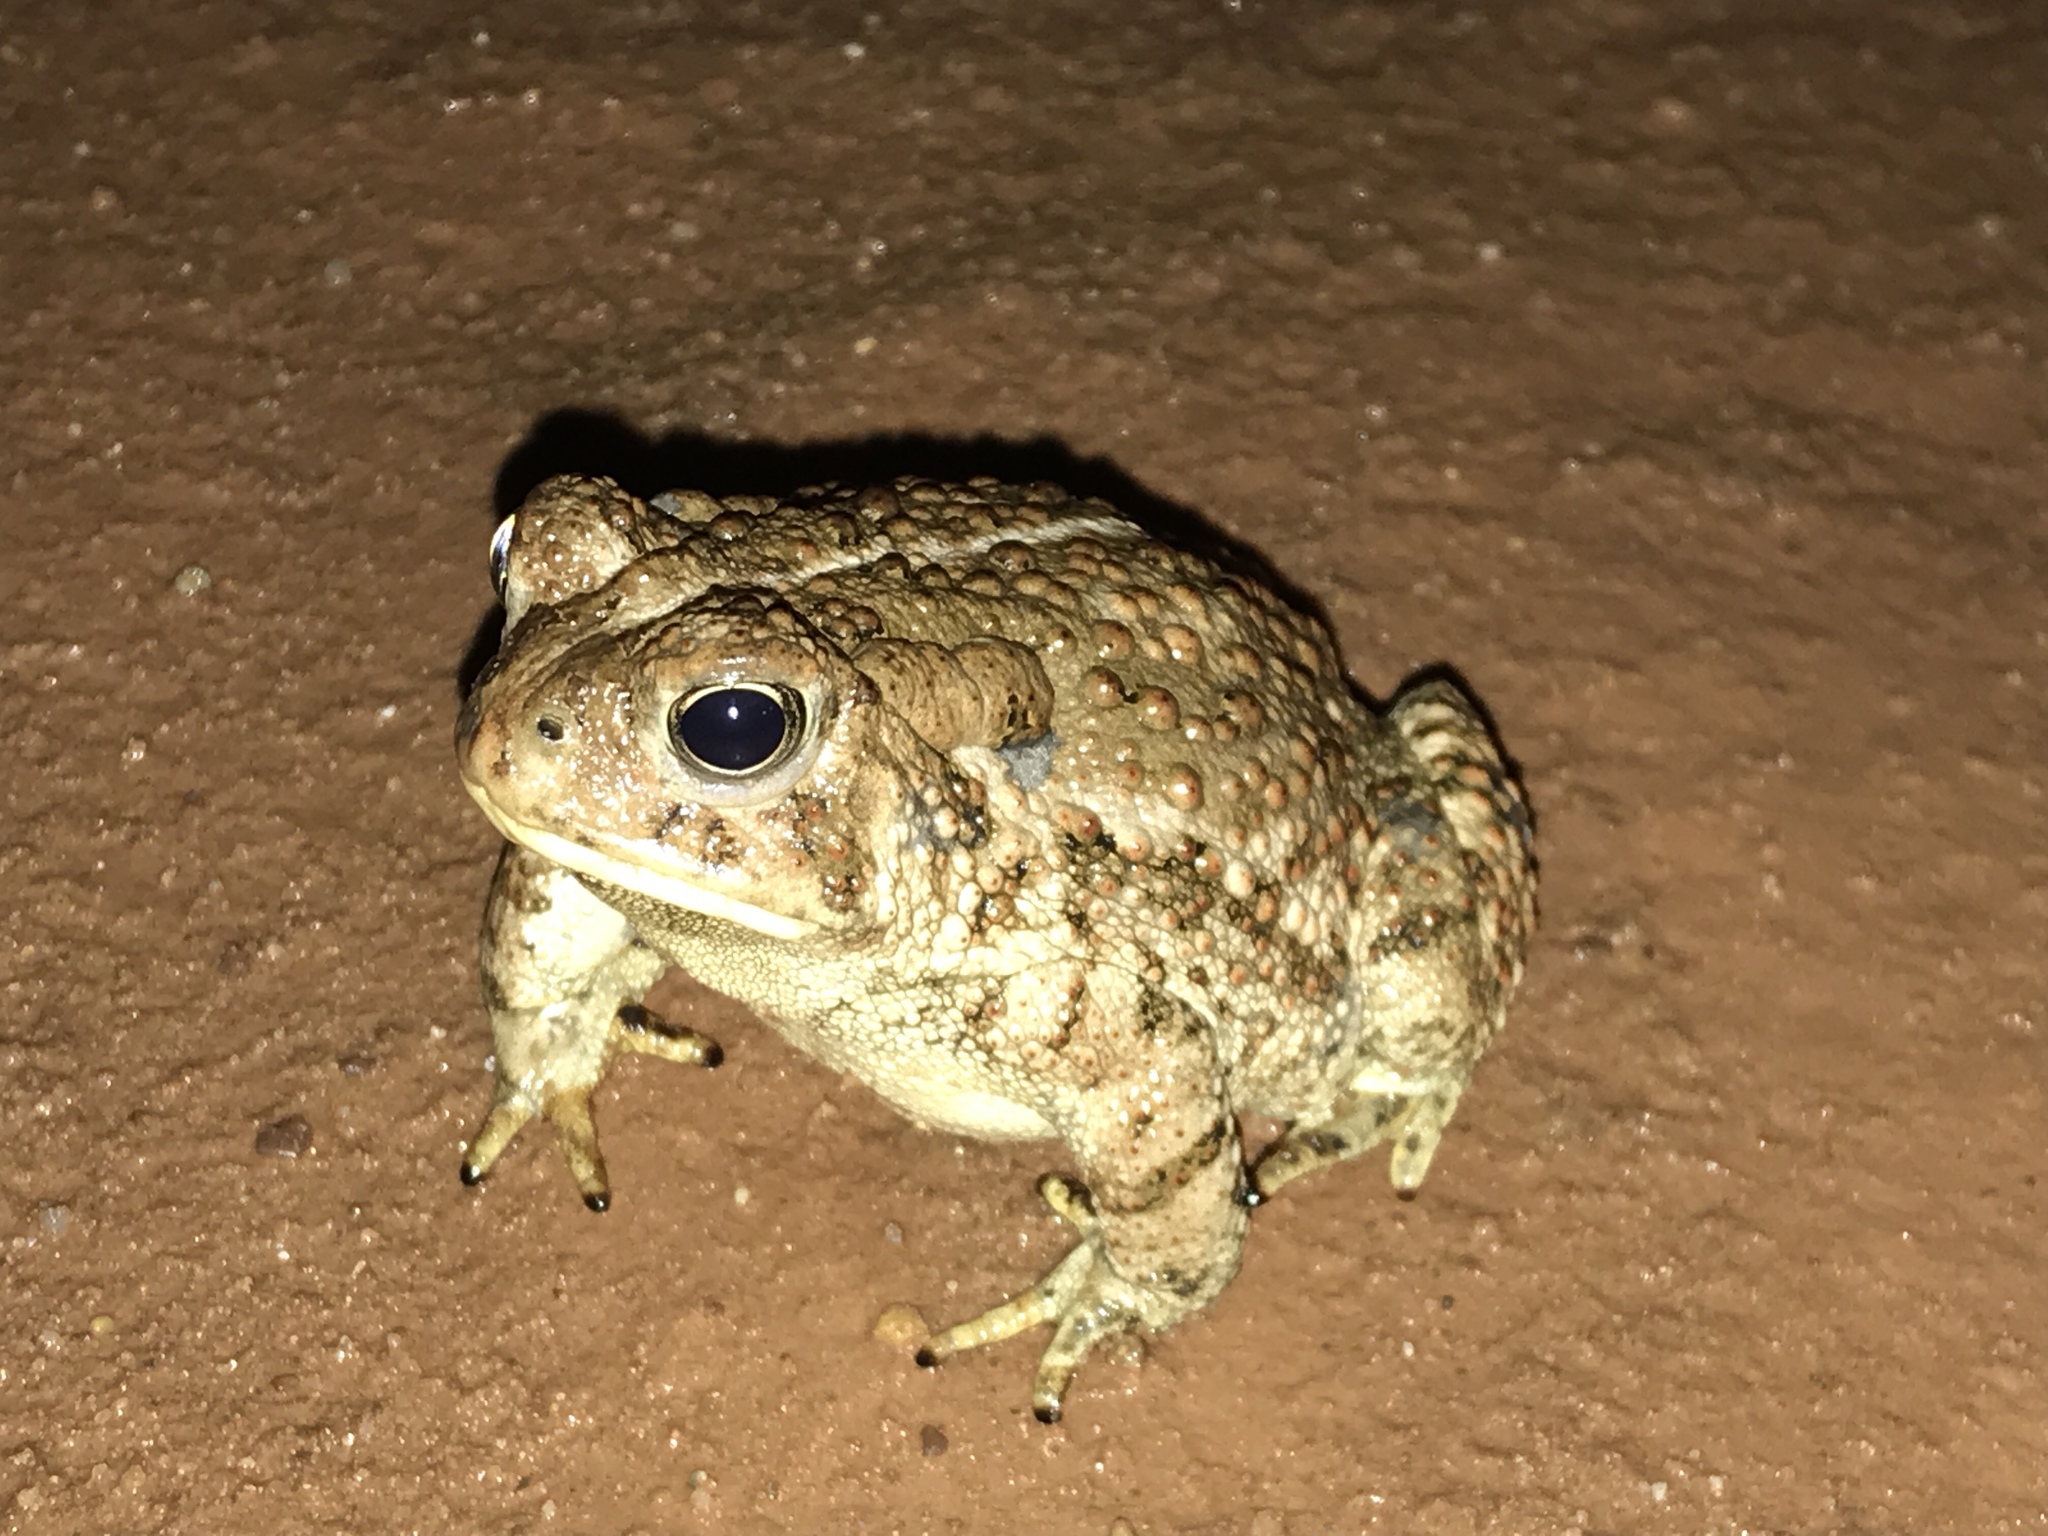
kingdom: Animalia
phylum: Chordata
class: Amphibia
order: Anura
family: Bufonidae
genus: Anaxyrus
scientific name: Anaxyrus woodhousii
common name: Woodhouse's toad
